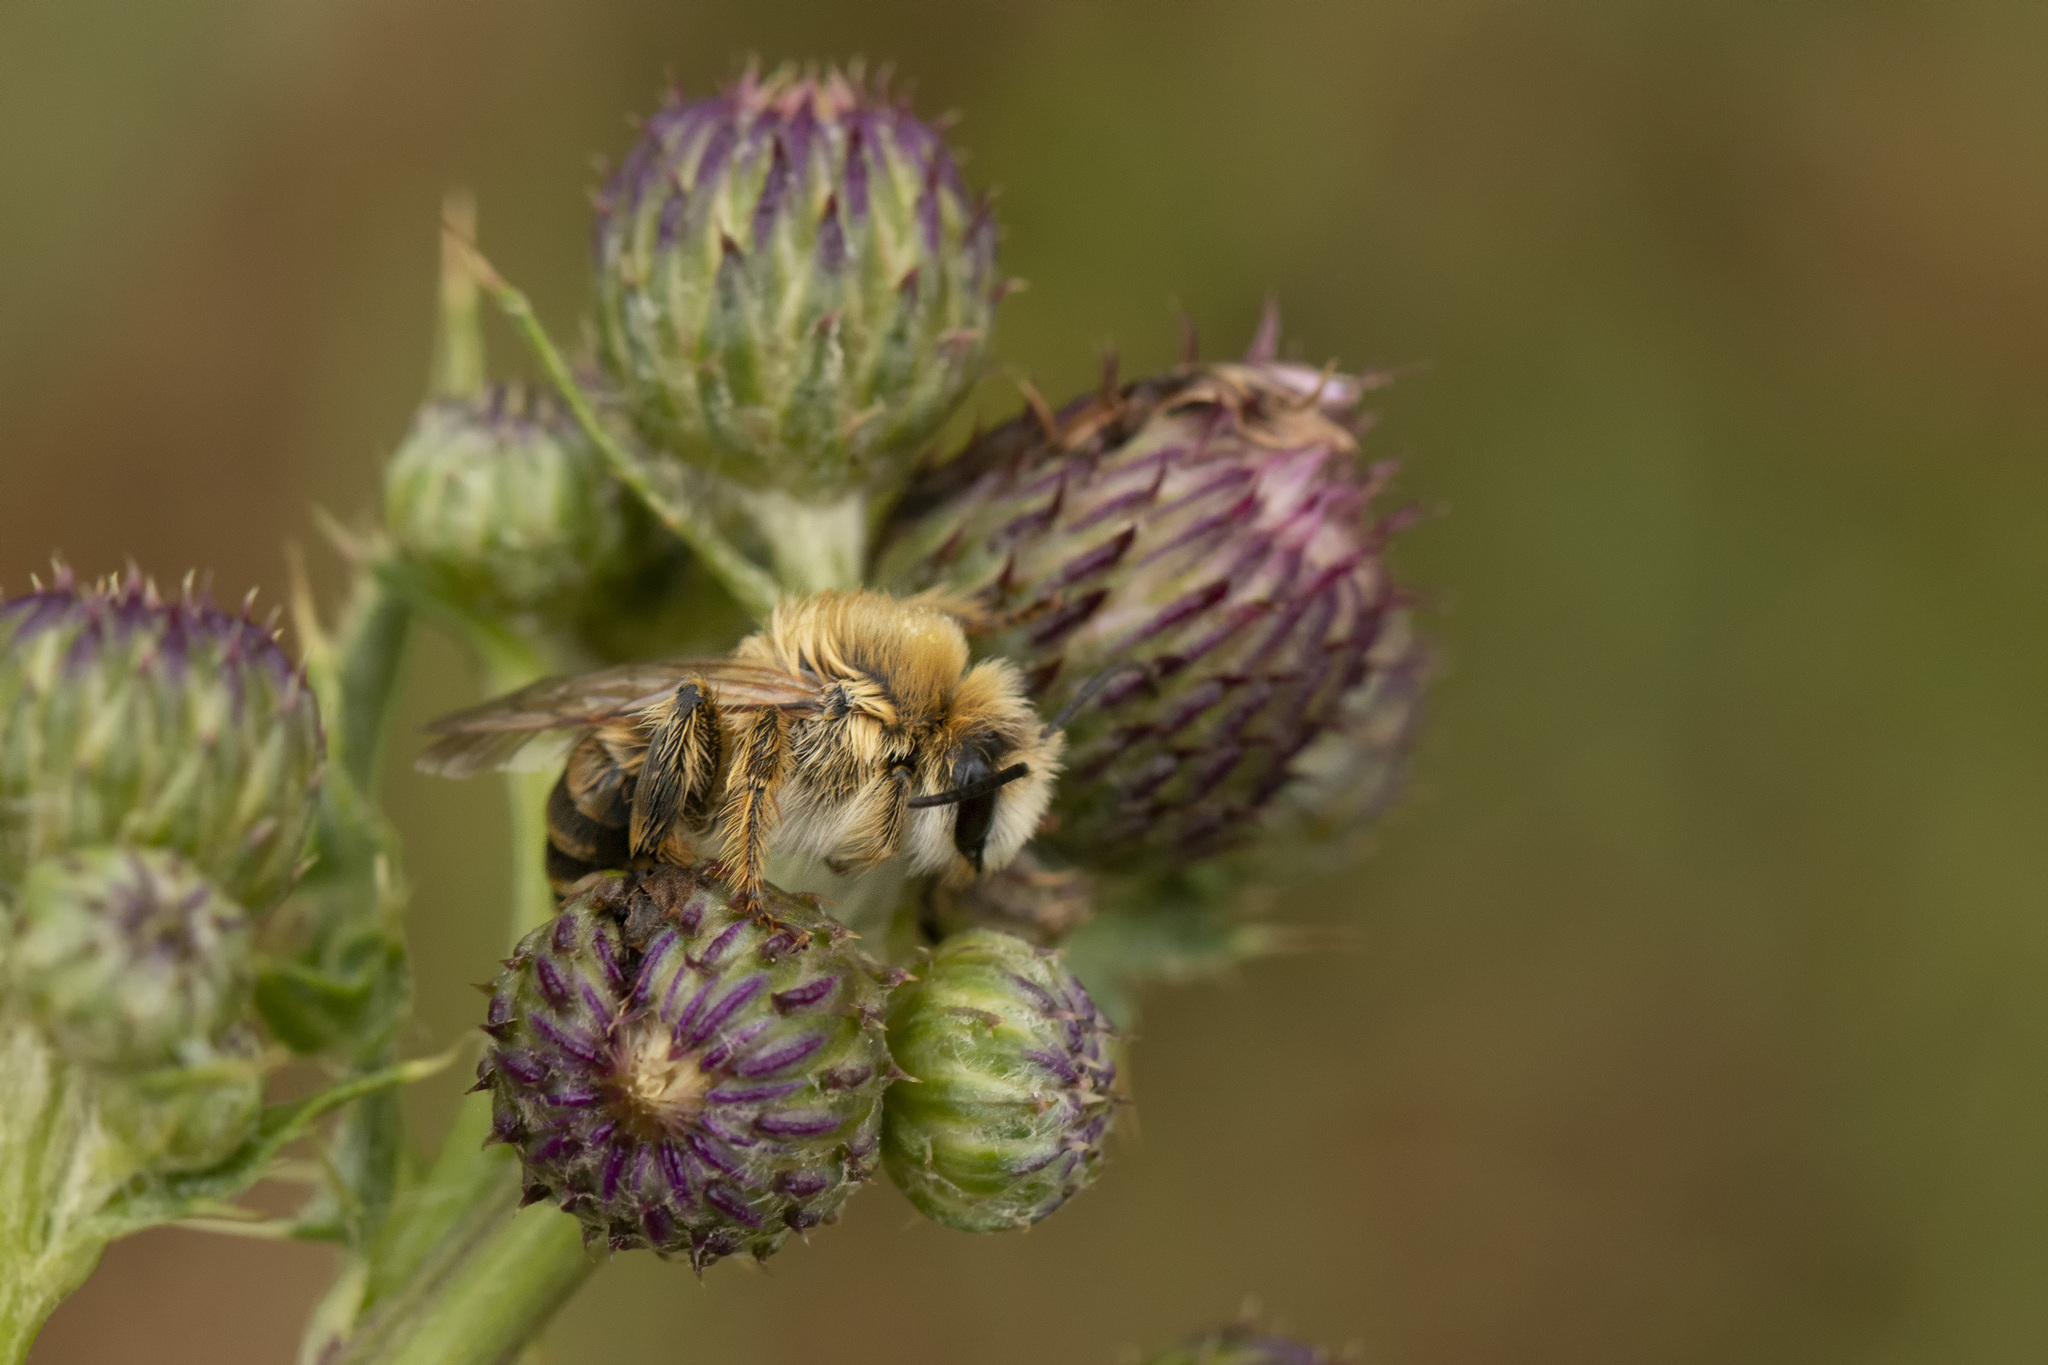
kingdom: Animalia
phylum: Arthropoda
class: Insecta
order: Hymenoptera
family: Melittidae
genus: Dasypoda
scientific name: Dasypoda hirtipes
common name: Pantaloon bee
